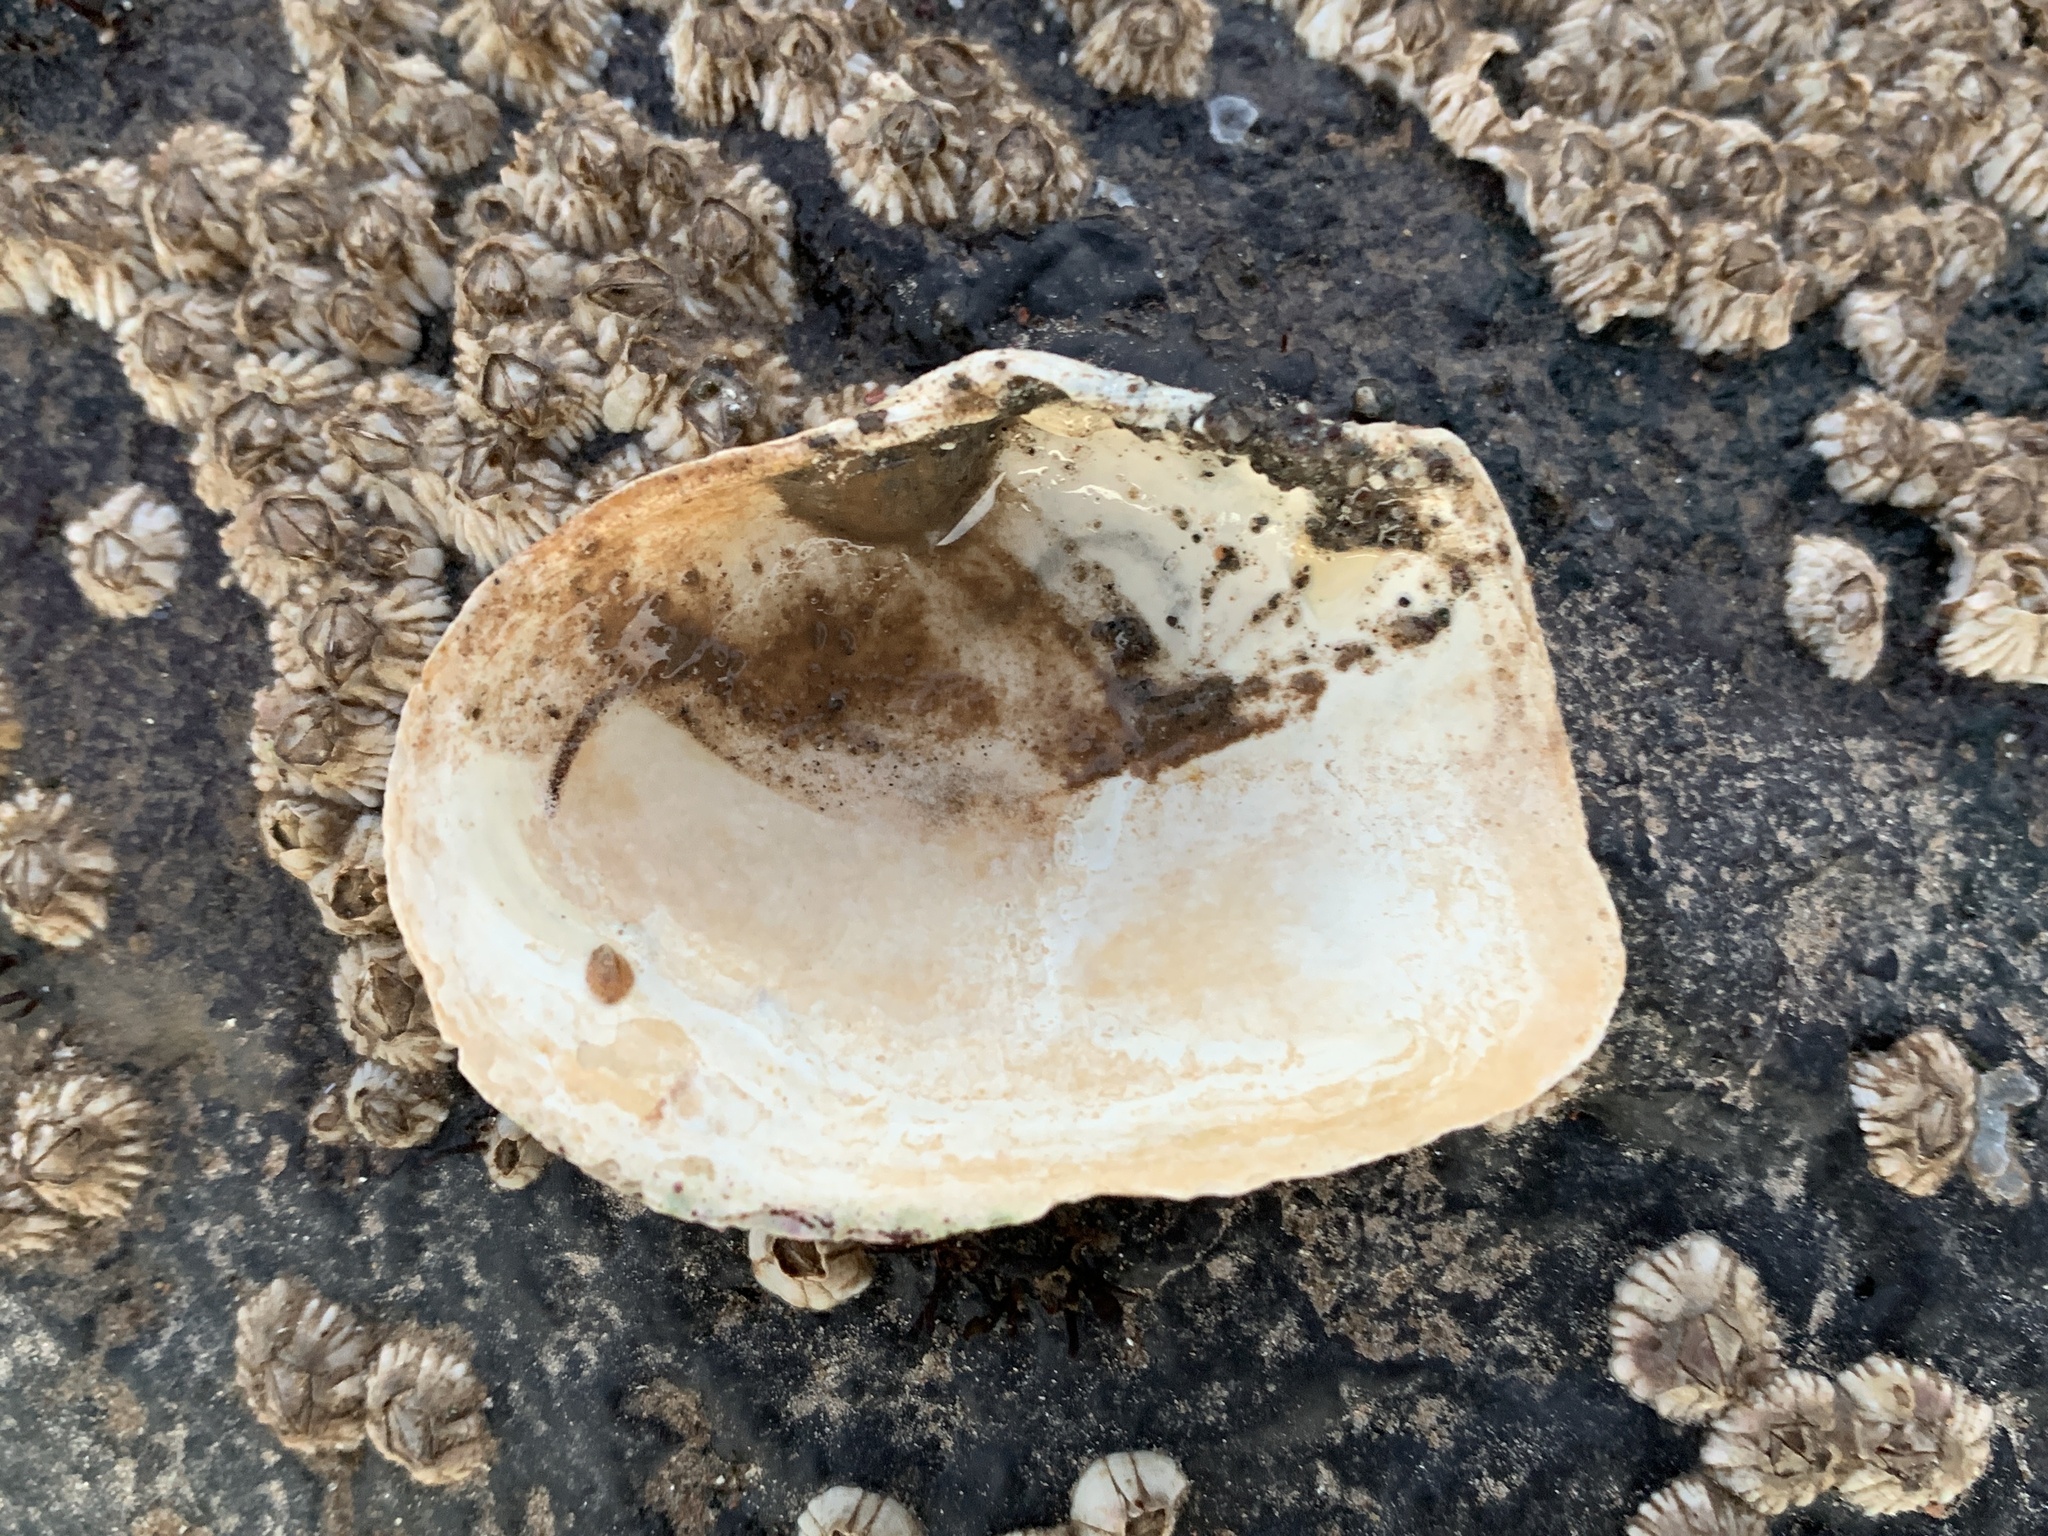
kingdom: Animalia
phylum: Mollusca
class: Bivalvia
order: Myida
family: Myidae
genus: Mya
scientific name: Mya truncata
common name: Blunt gaper
